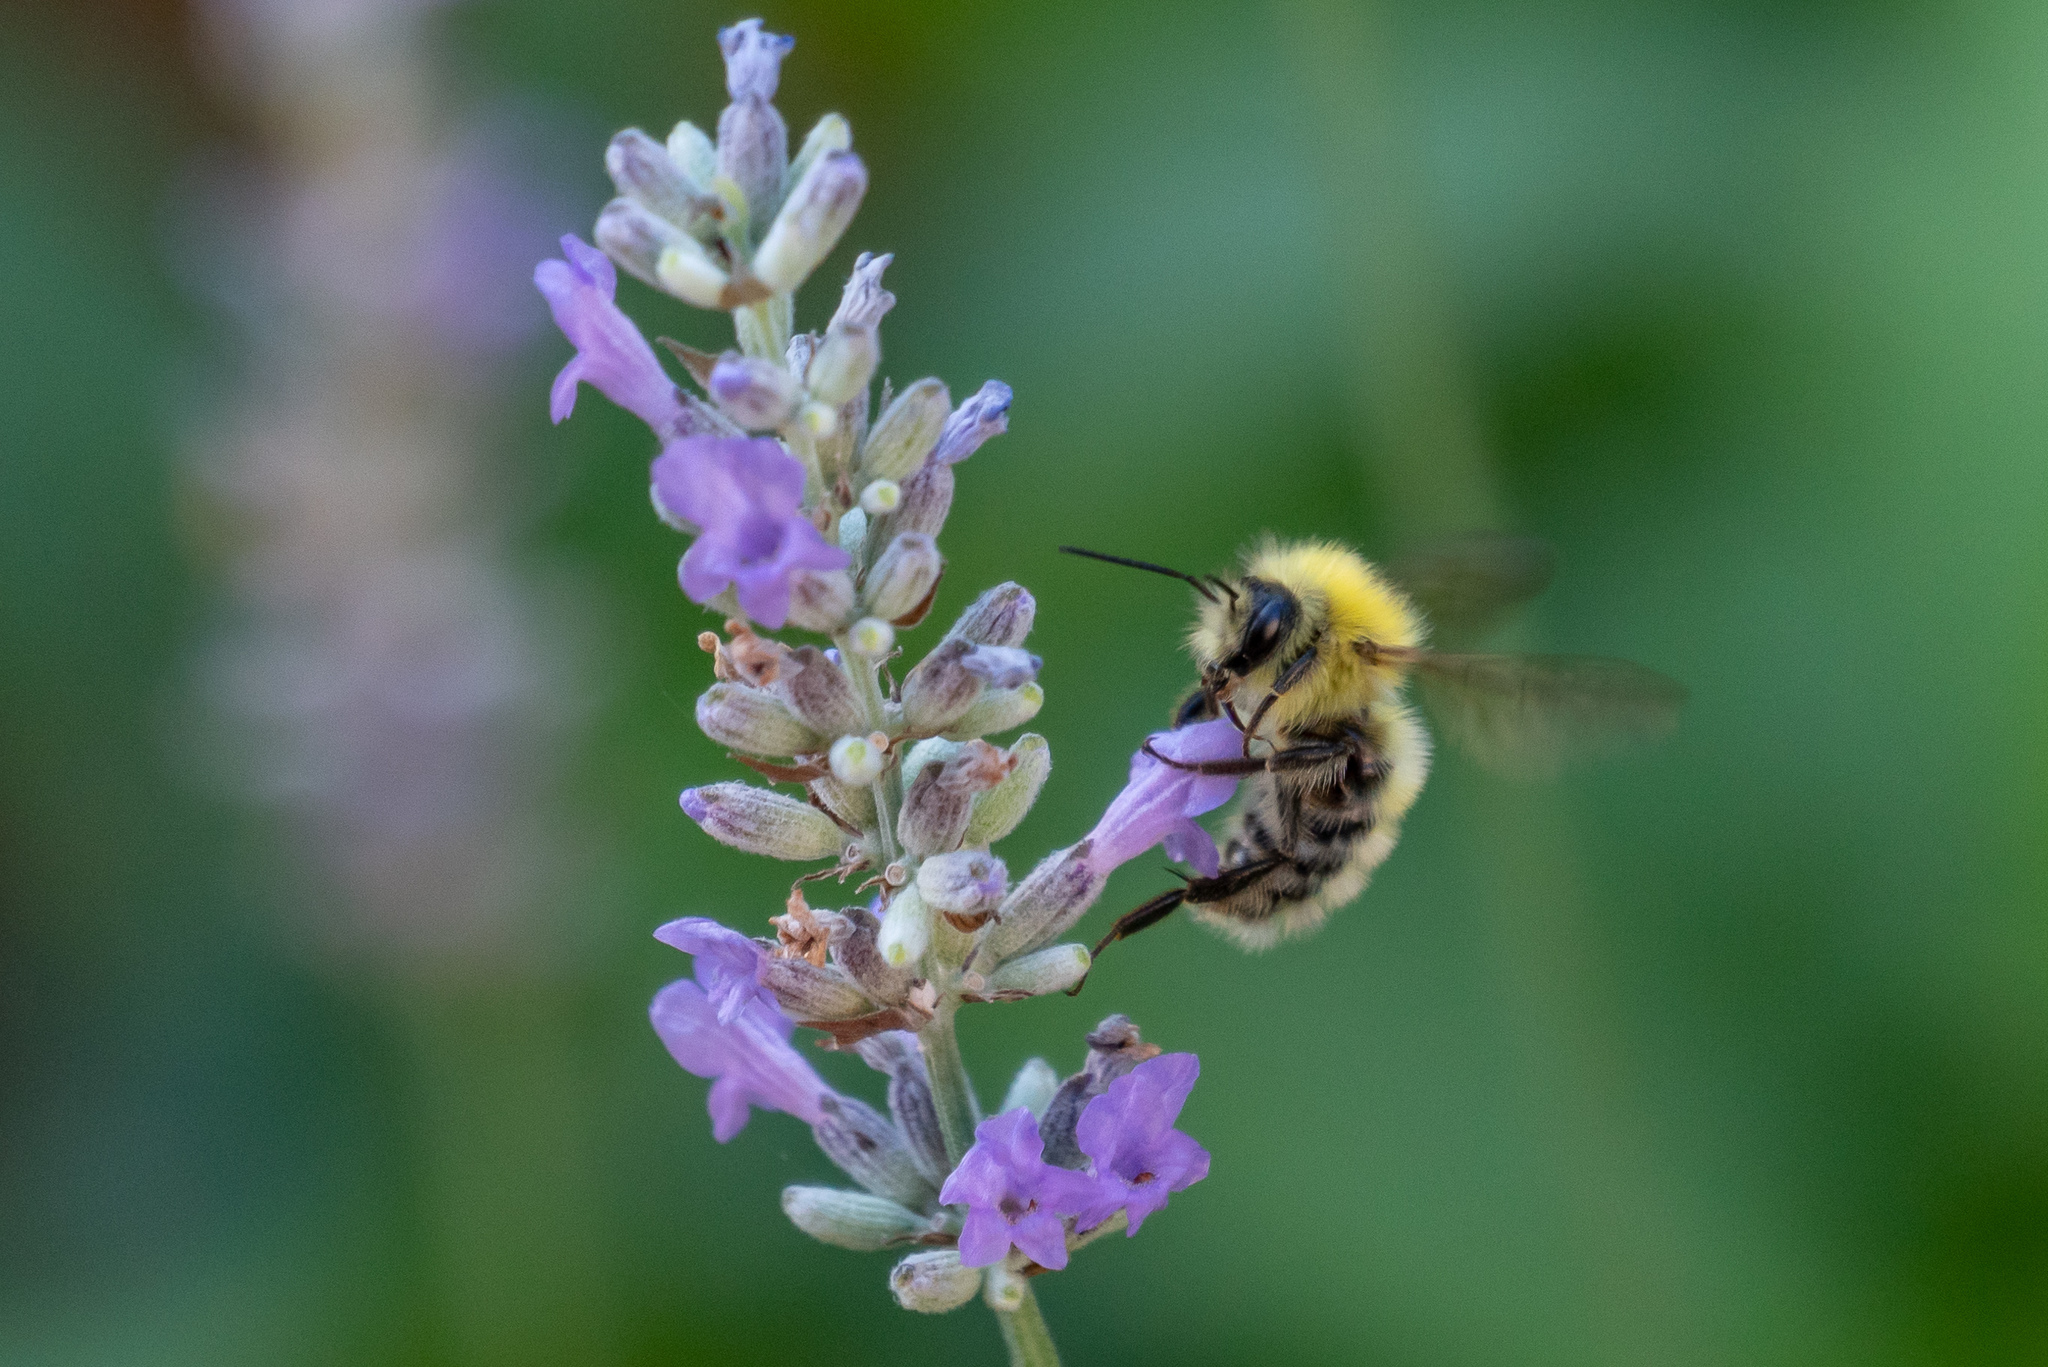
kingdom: Animalia
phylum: Arthropoda
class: Insecta
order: Hymenoptera
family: Apidae
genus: Bombus
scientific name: Bombus perplexus
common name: Confusing bumble bee
